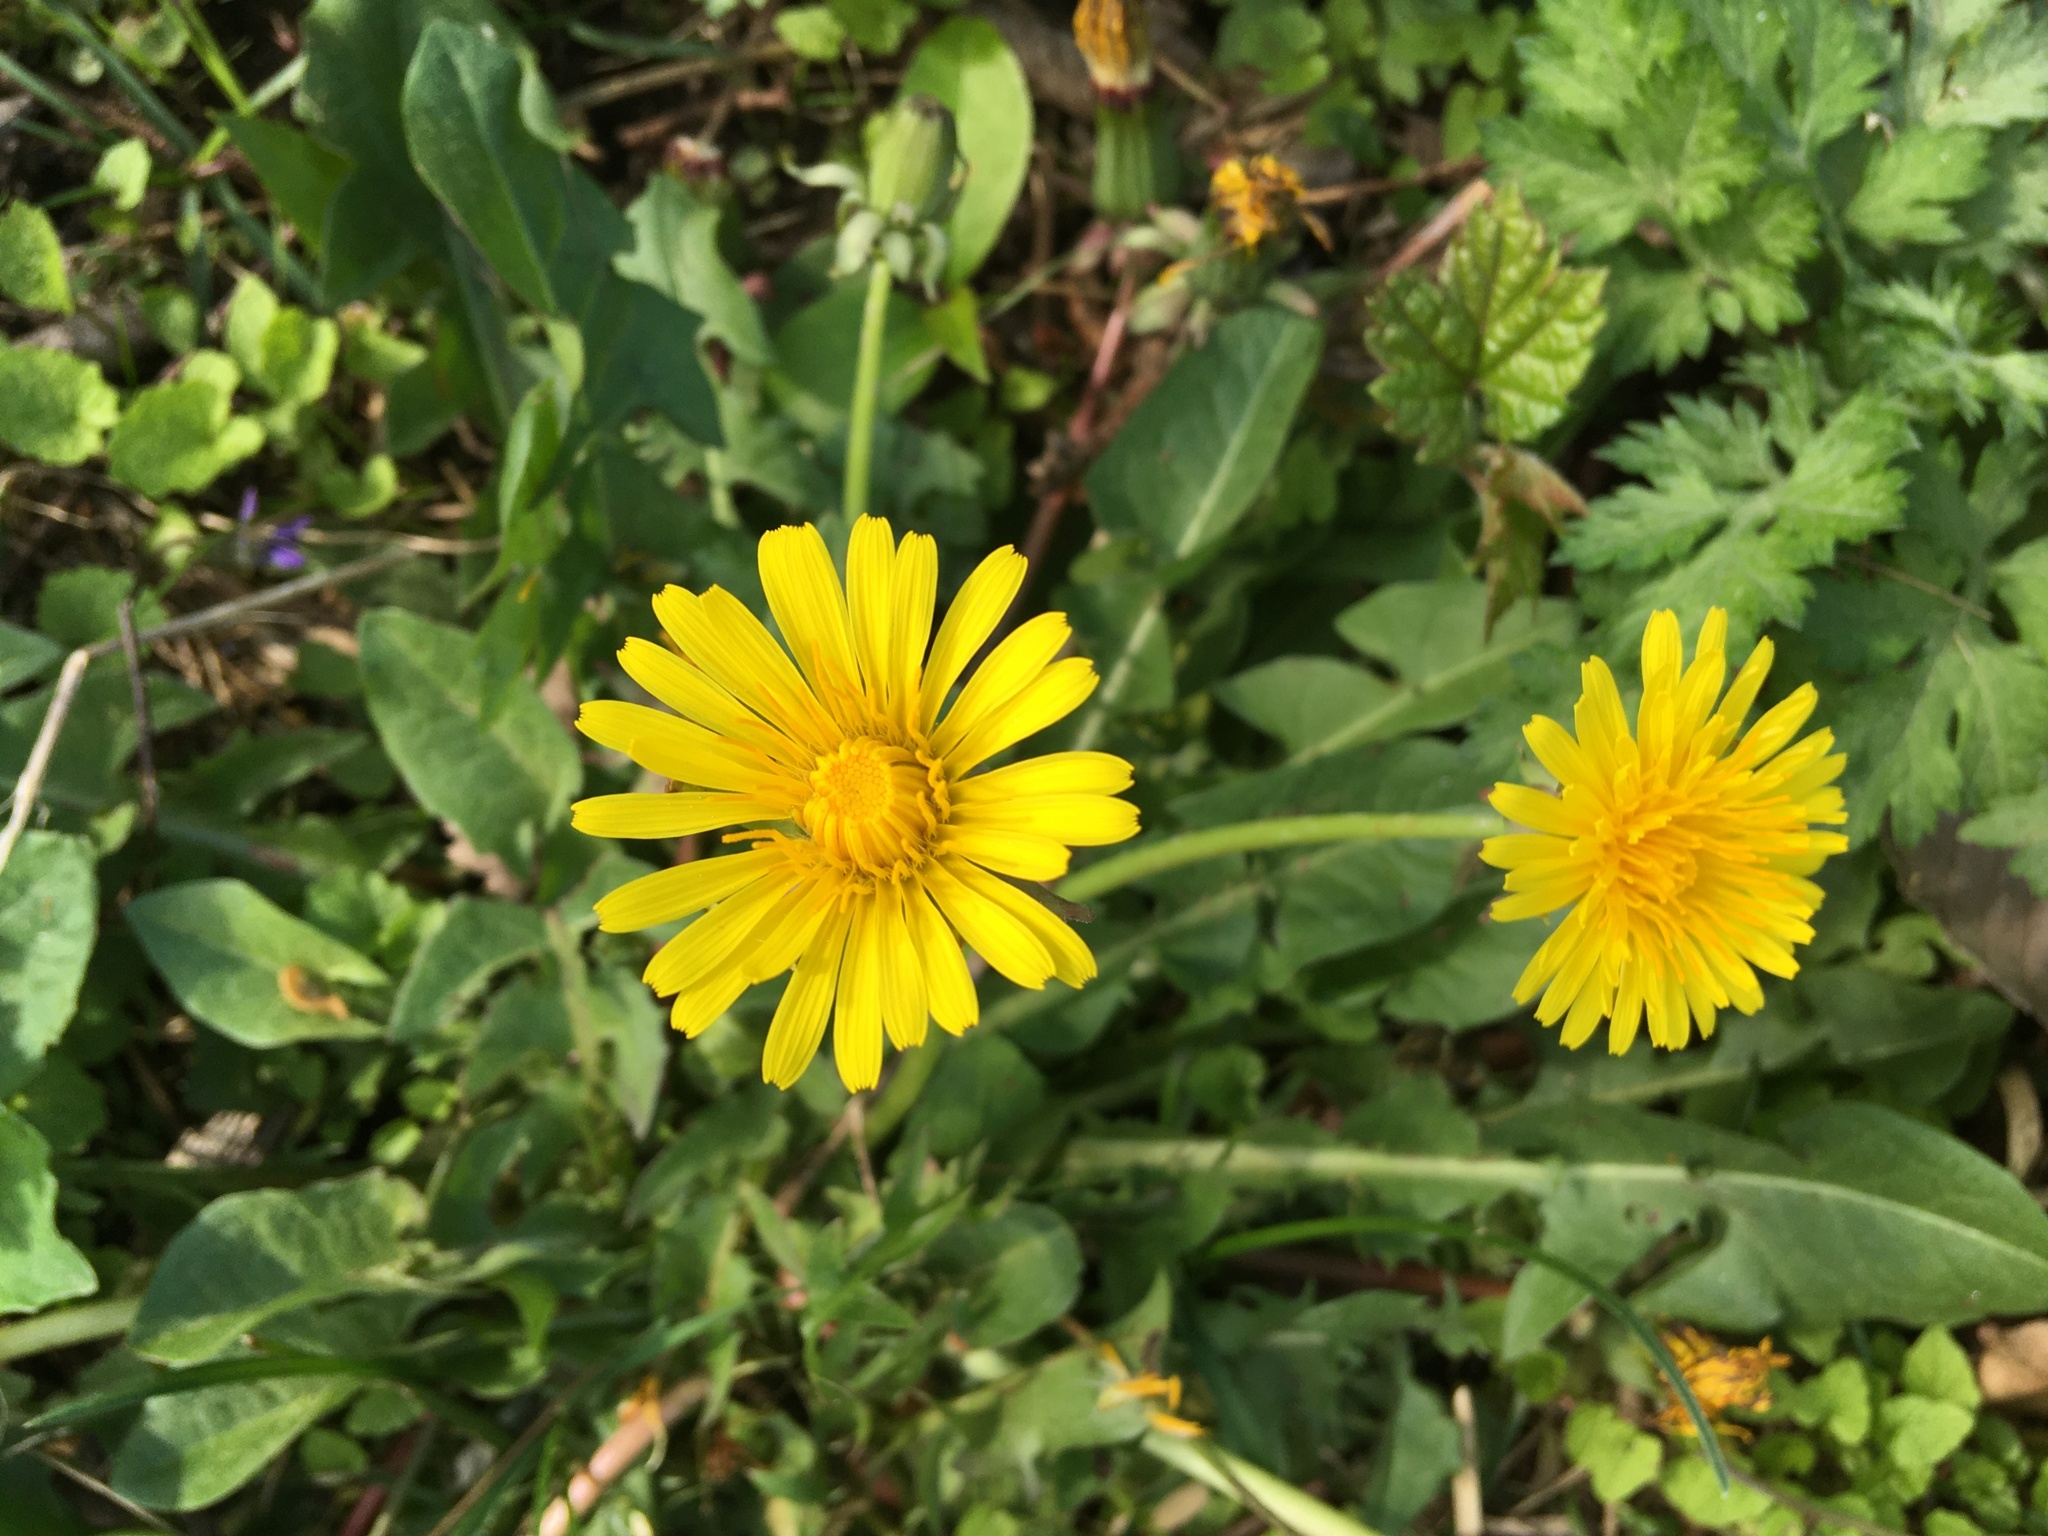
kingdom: Plantae
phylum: Tracheophyta
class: Magnoliopsida
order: Asterales
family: Asteraceae
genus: Taraxacum
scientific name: Taraxacum officinale
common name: Common dandelion
